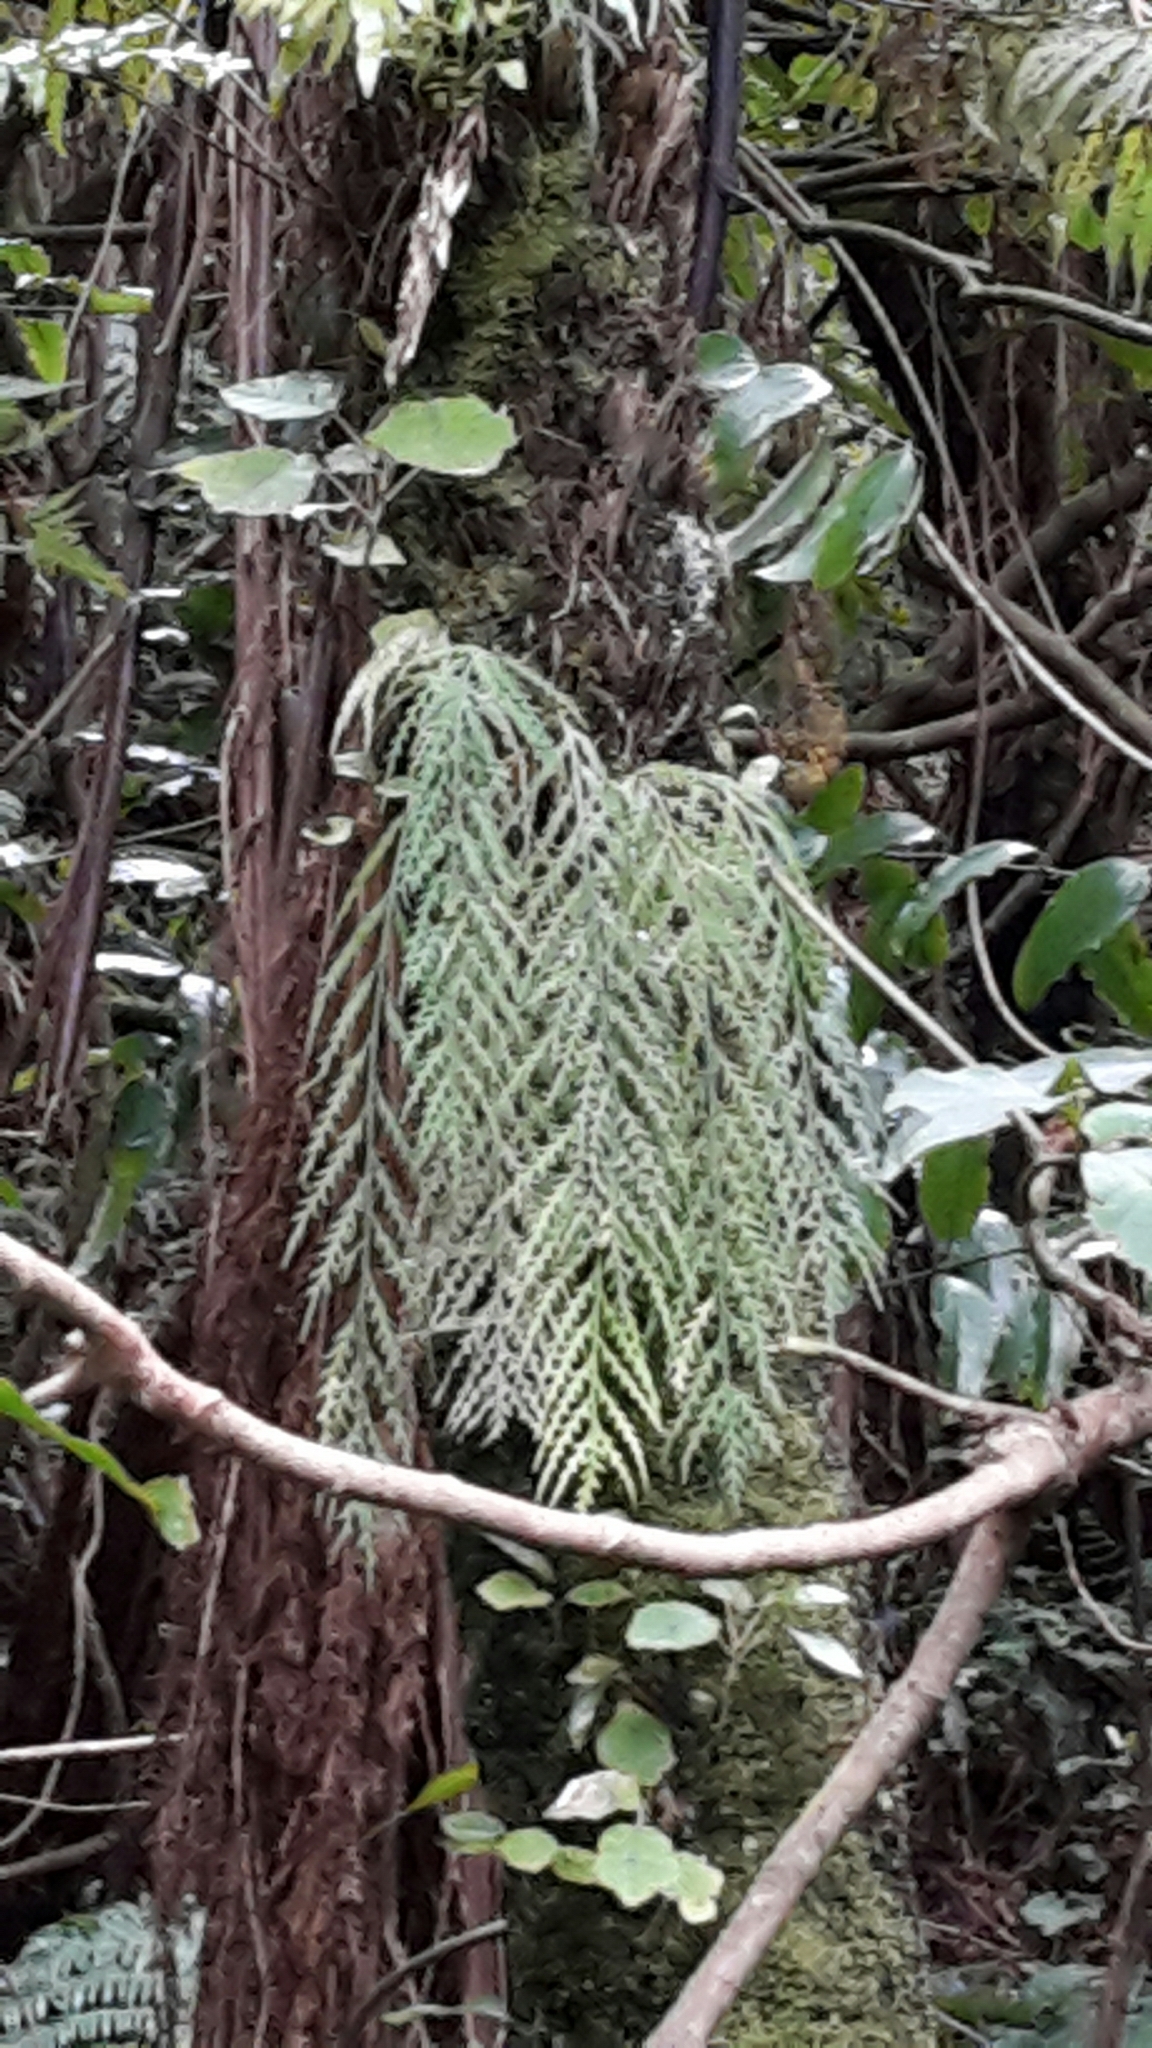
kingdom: Plantae
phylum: Tracheophyta
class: Polypodiopsida
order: Polypodiales
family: Aspleniaceae
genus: Asplenium
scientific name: Asplenium flaccidum
